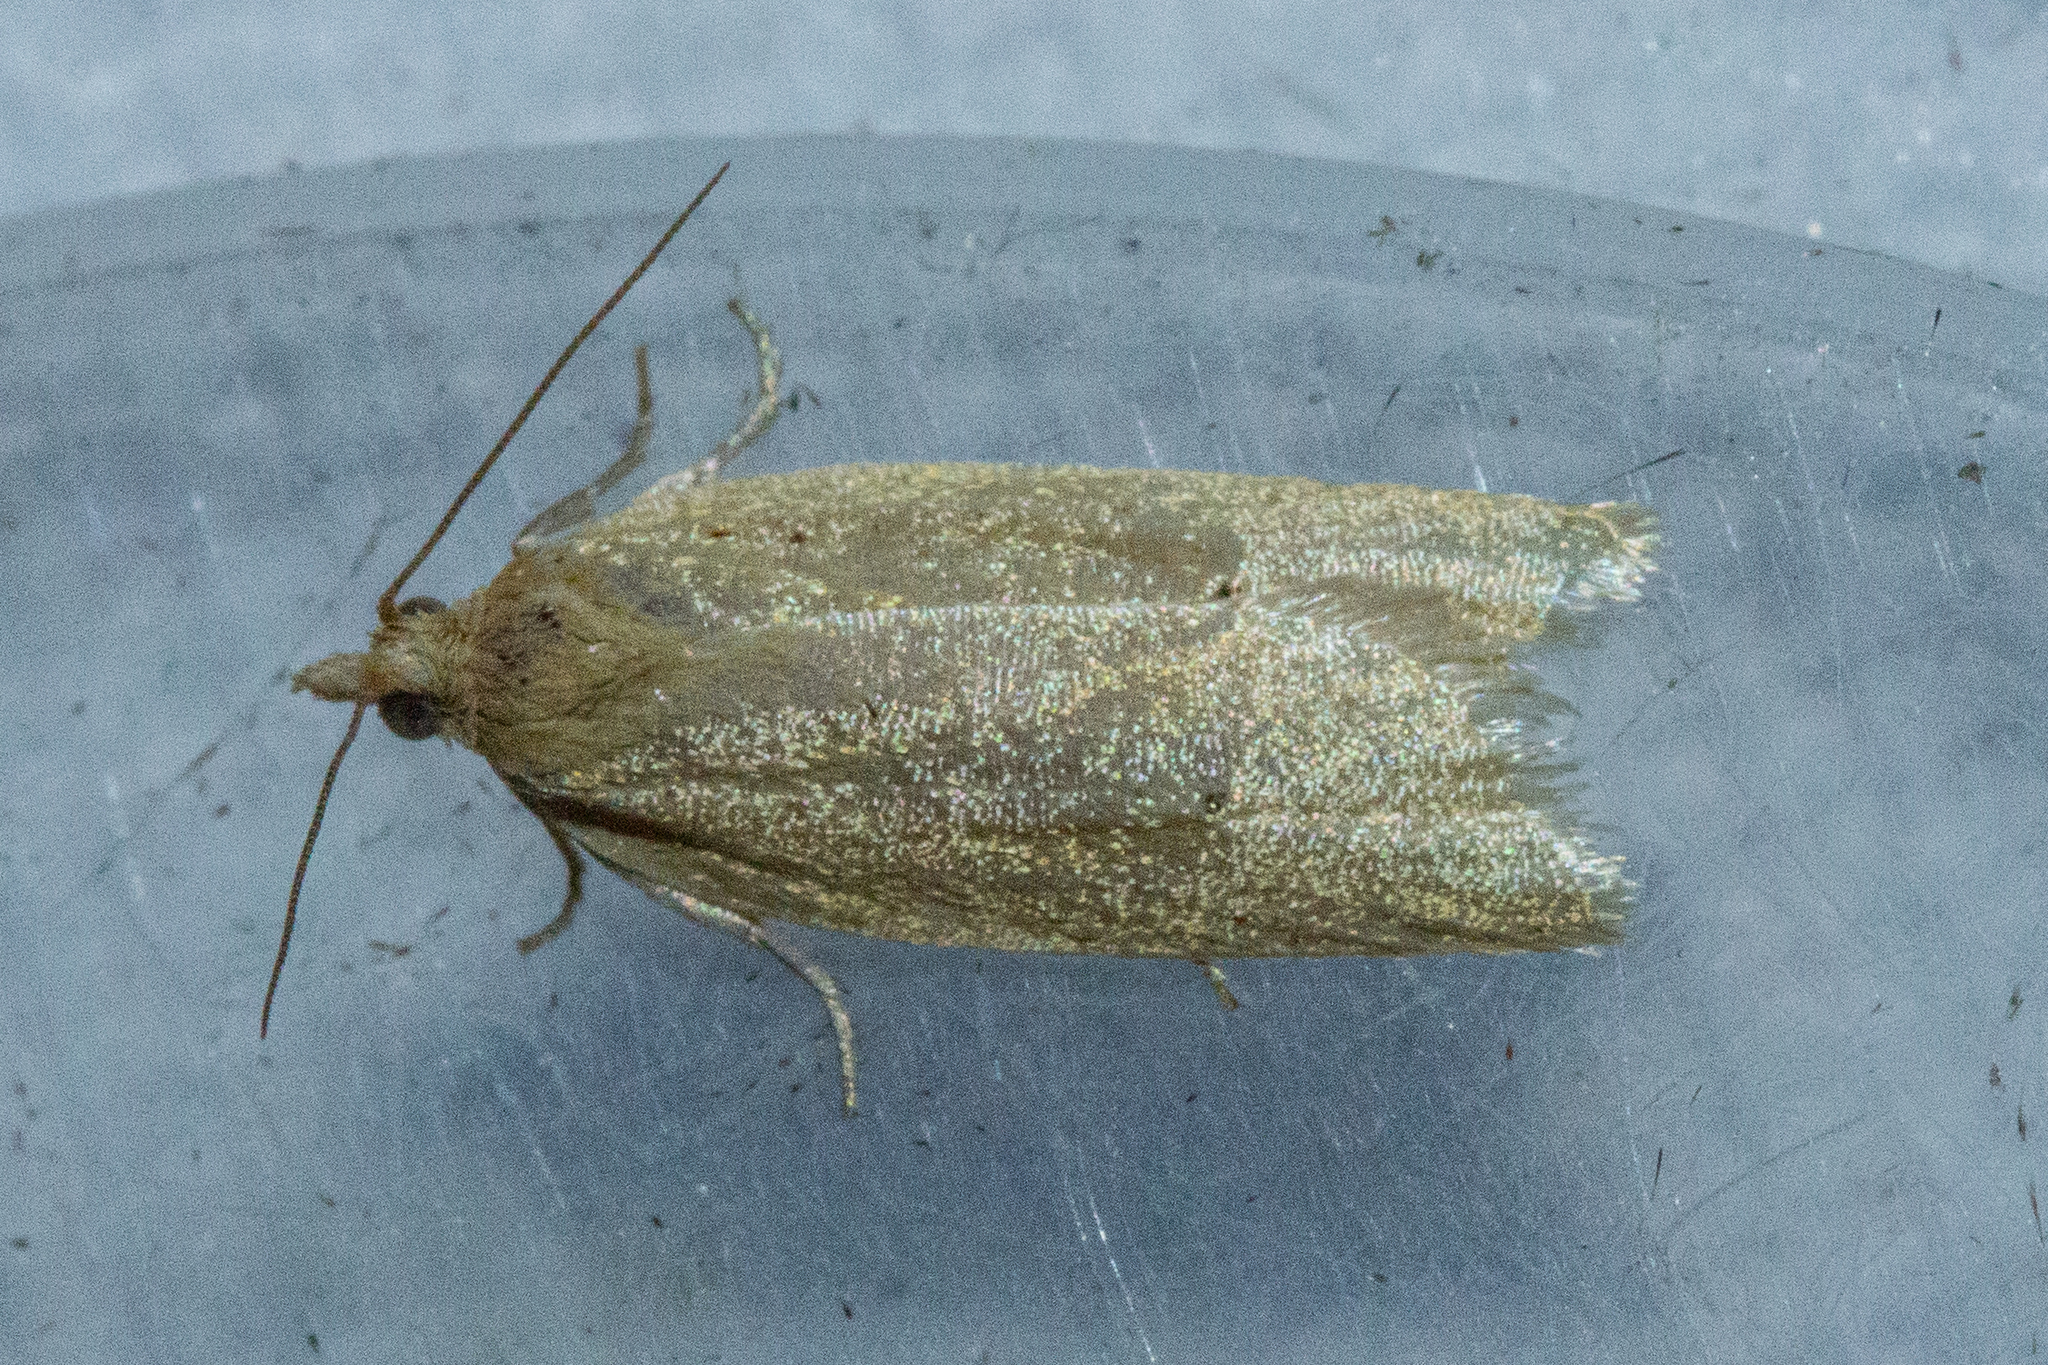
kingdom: Animalia
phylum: Arthropoda
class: Insecta
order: Lepidoptera
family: Tortricidae
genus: Clepsis
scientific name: Clepsis
